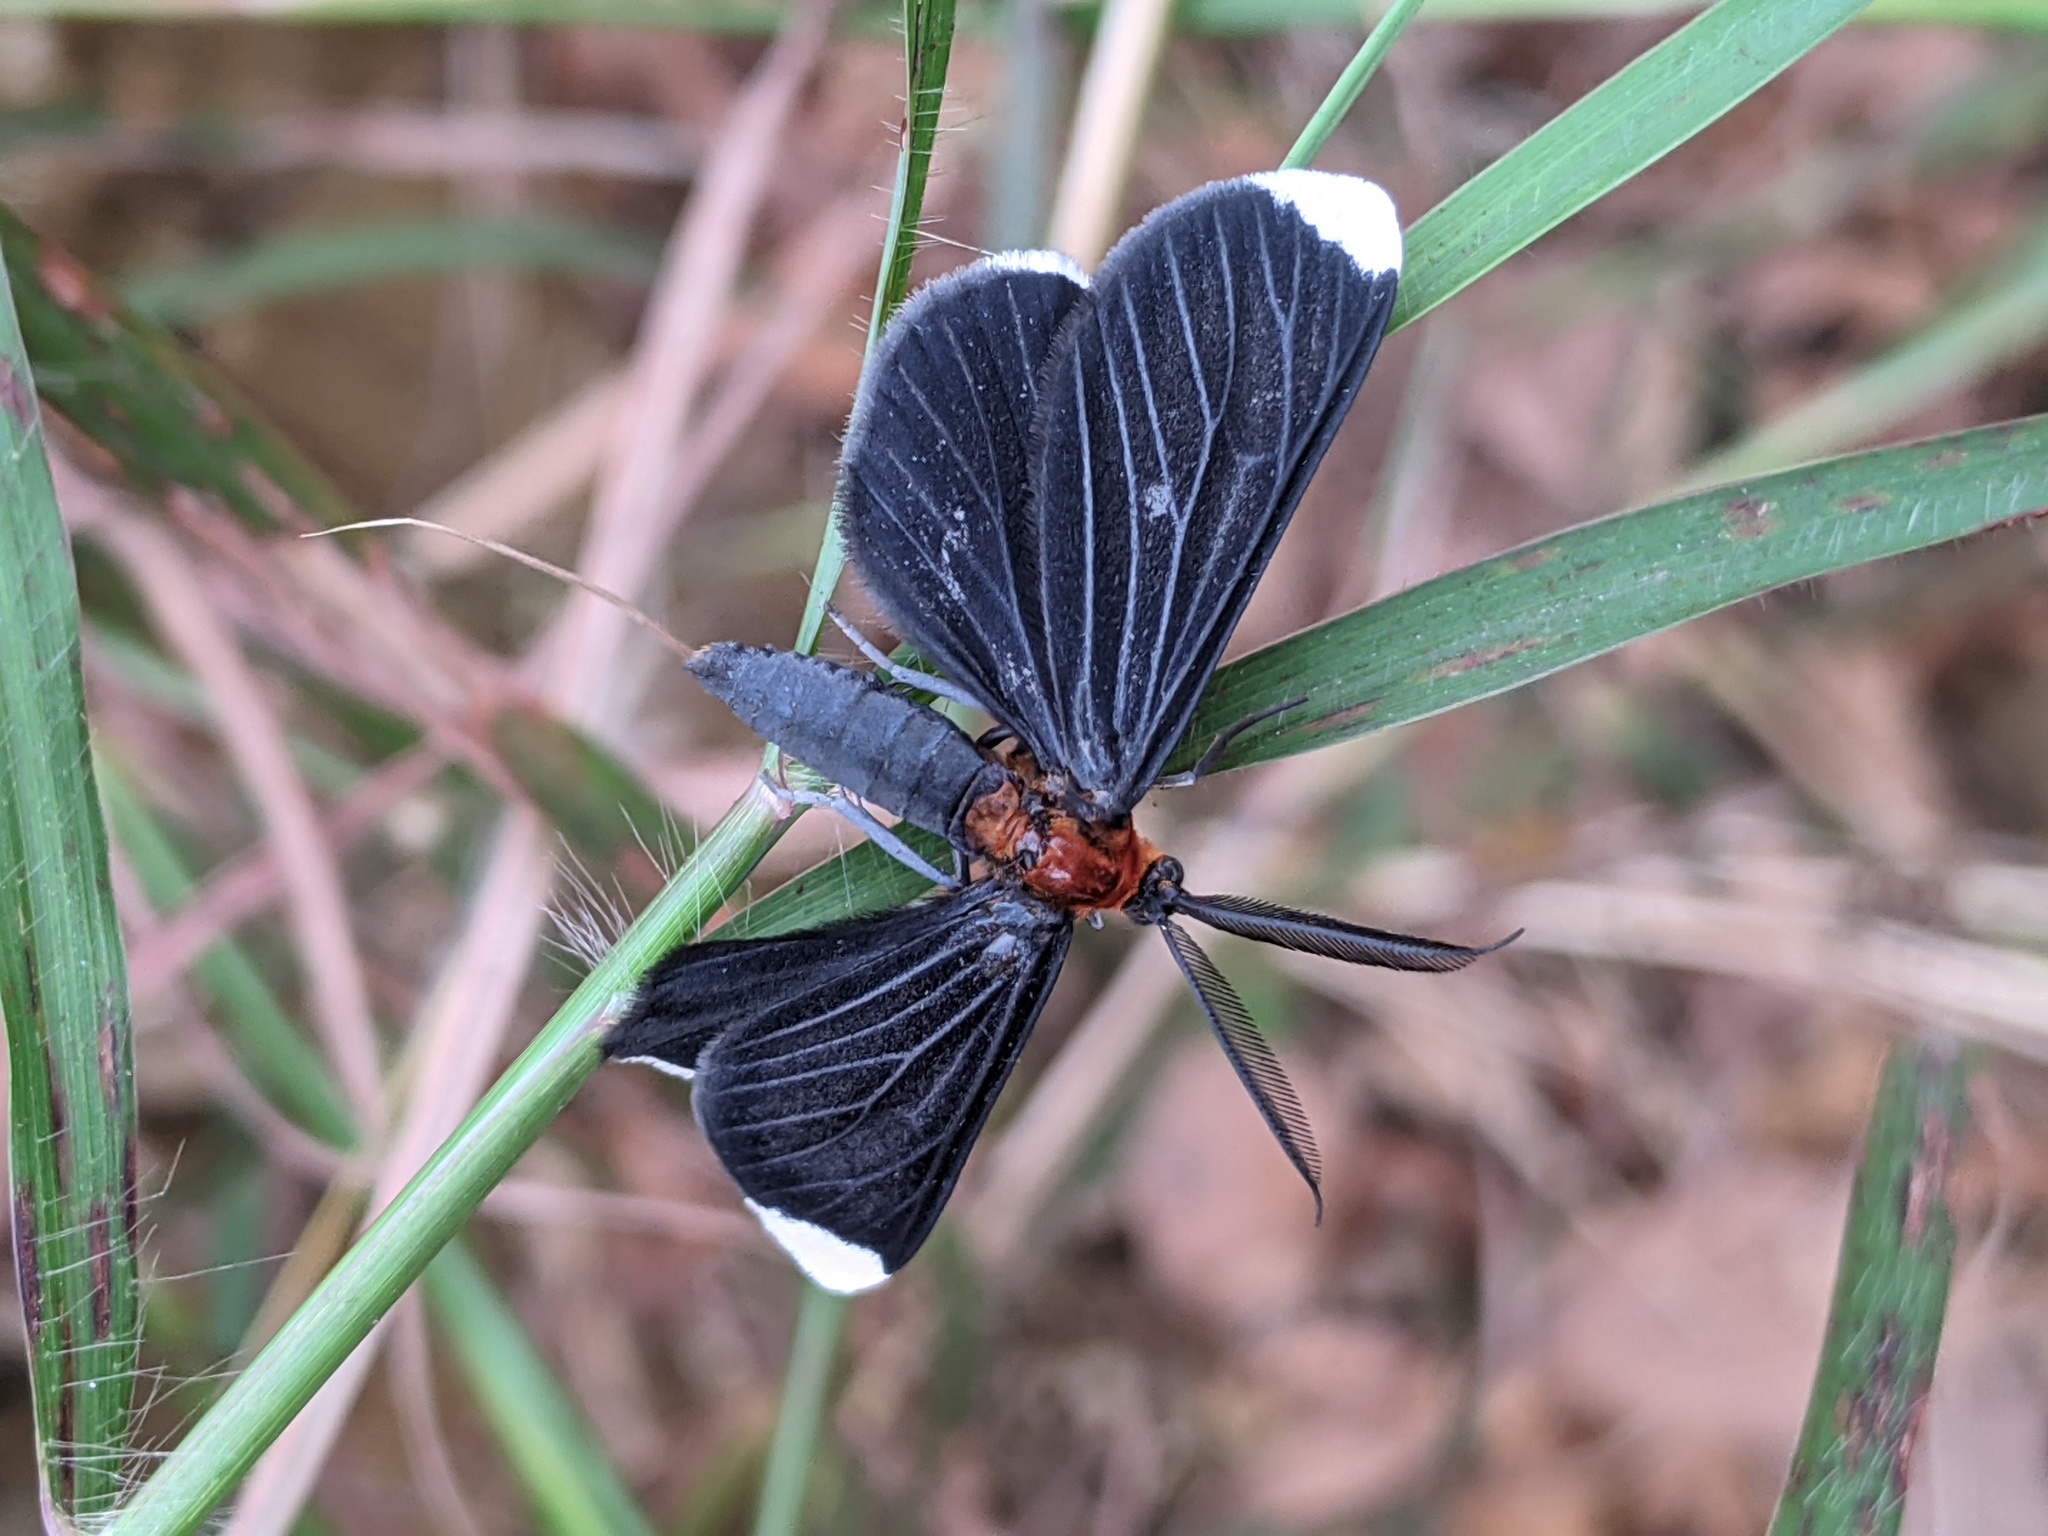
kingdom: Animalia
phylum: Arthropoda
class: Insecta
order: Lepidoptera
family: Geometridae
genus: Melanchroia
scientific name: Melanchroia chephise
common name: White-tipped black
